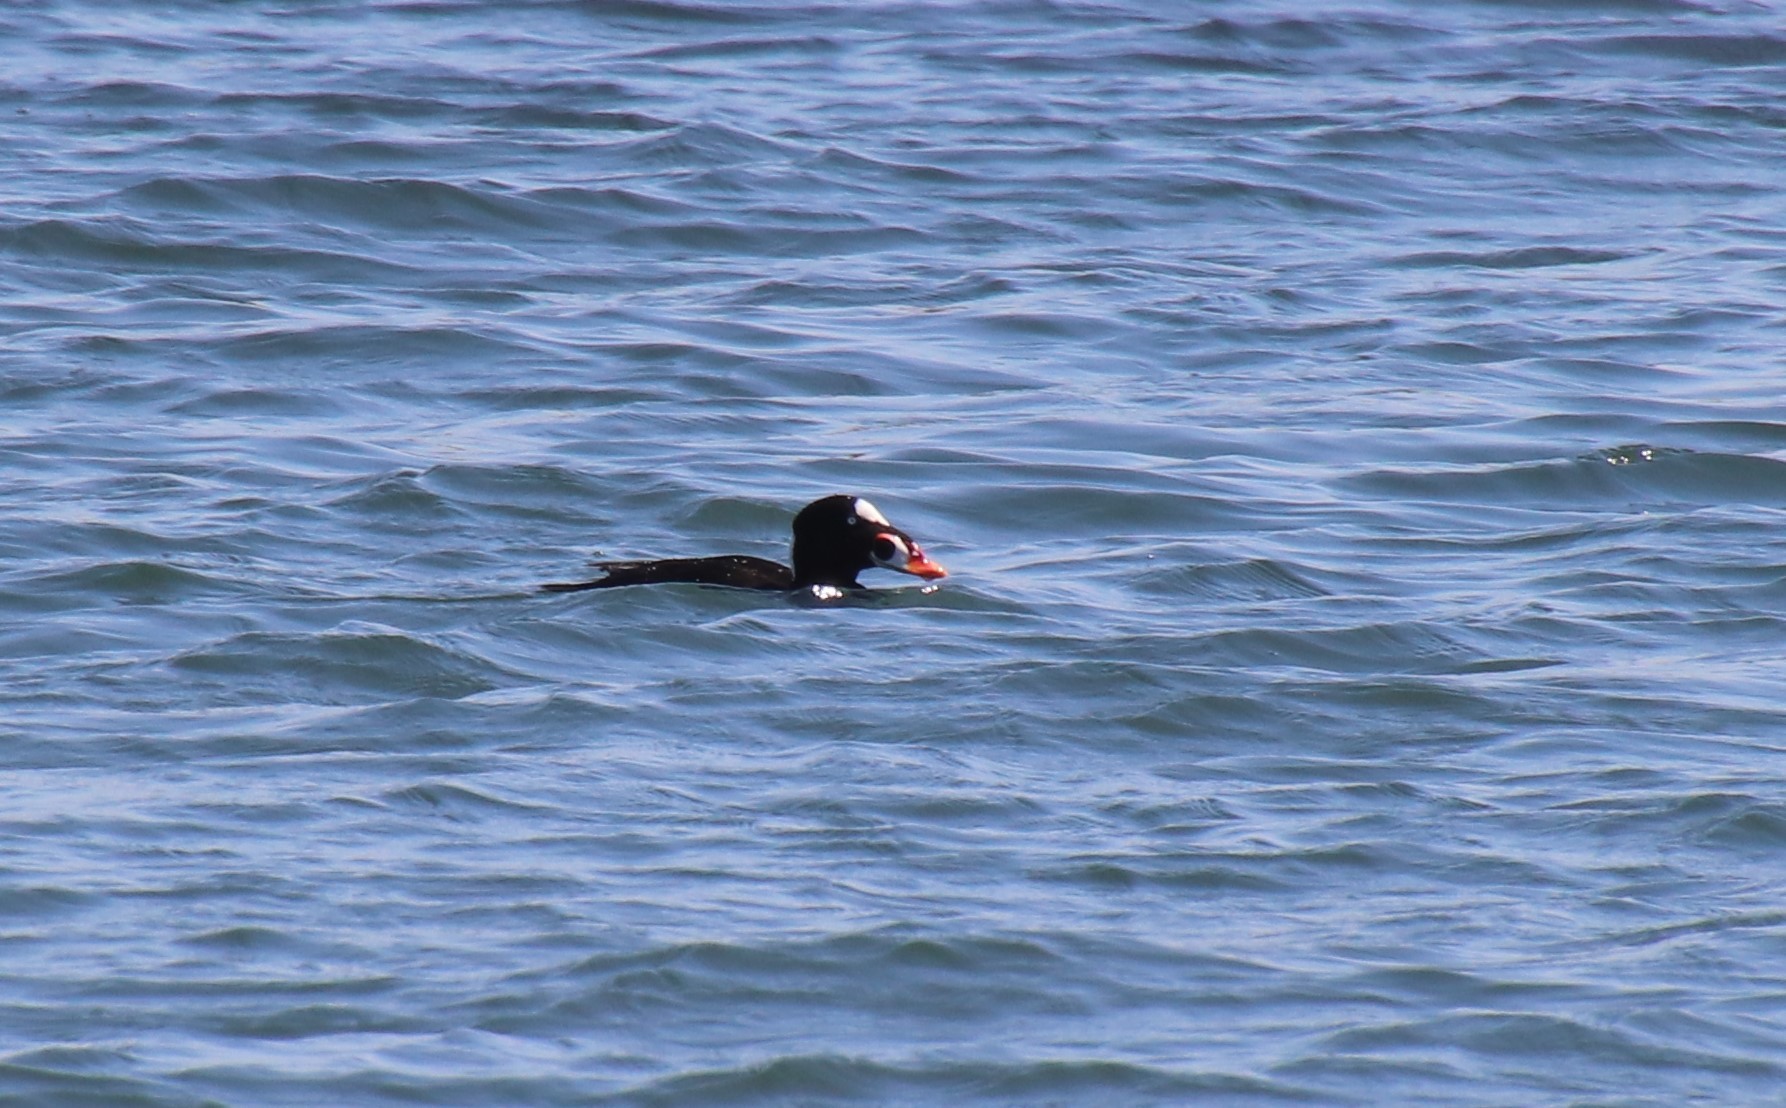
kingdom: Animalia
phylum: Chordata
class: Aves
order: Anseriformes
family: Anatidae
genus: Melanitta
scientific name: Melanitta perspicillata
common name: Surf scoter
